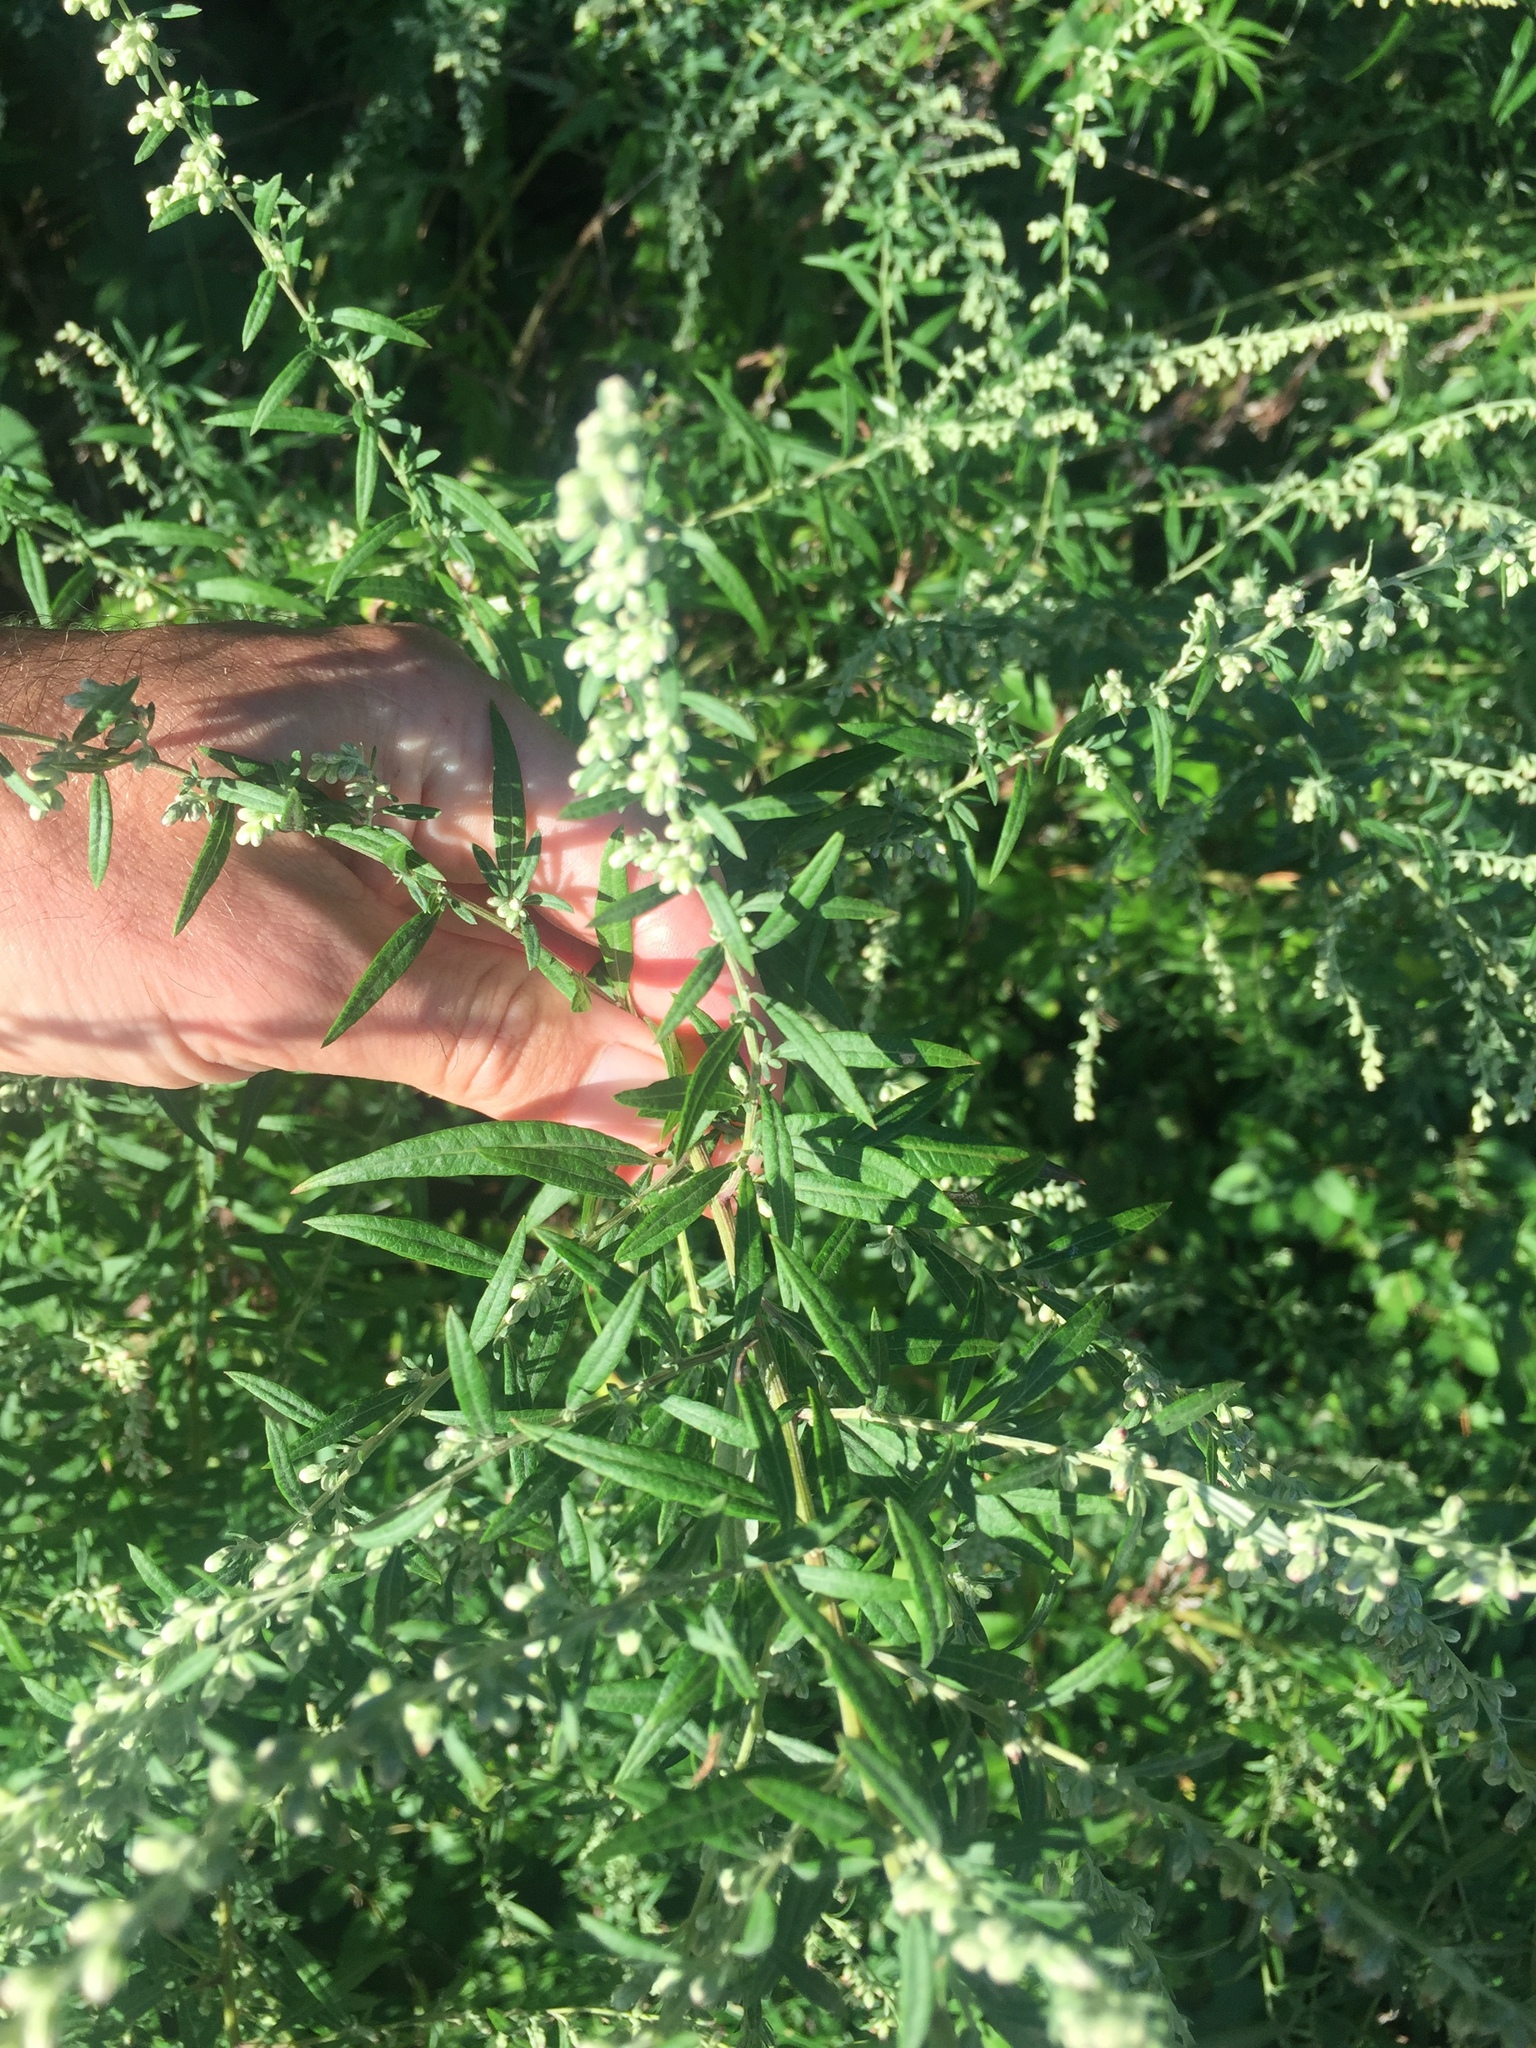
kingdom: Plantae
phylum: Tracheophyta
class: Magnoliopsida
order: Asterales
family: Asteraceae
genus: Artemisia
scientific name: Artemisia vulgaris
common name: Mugwort
